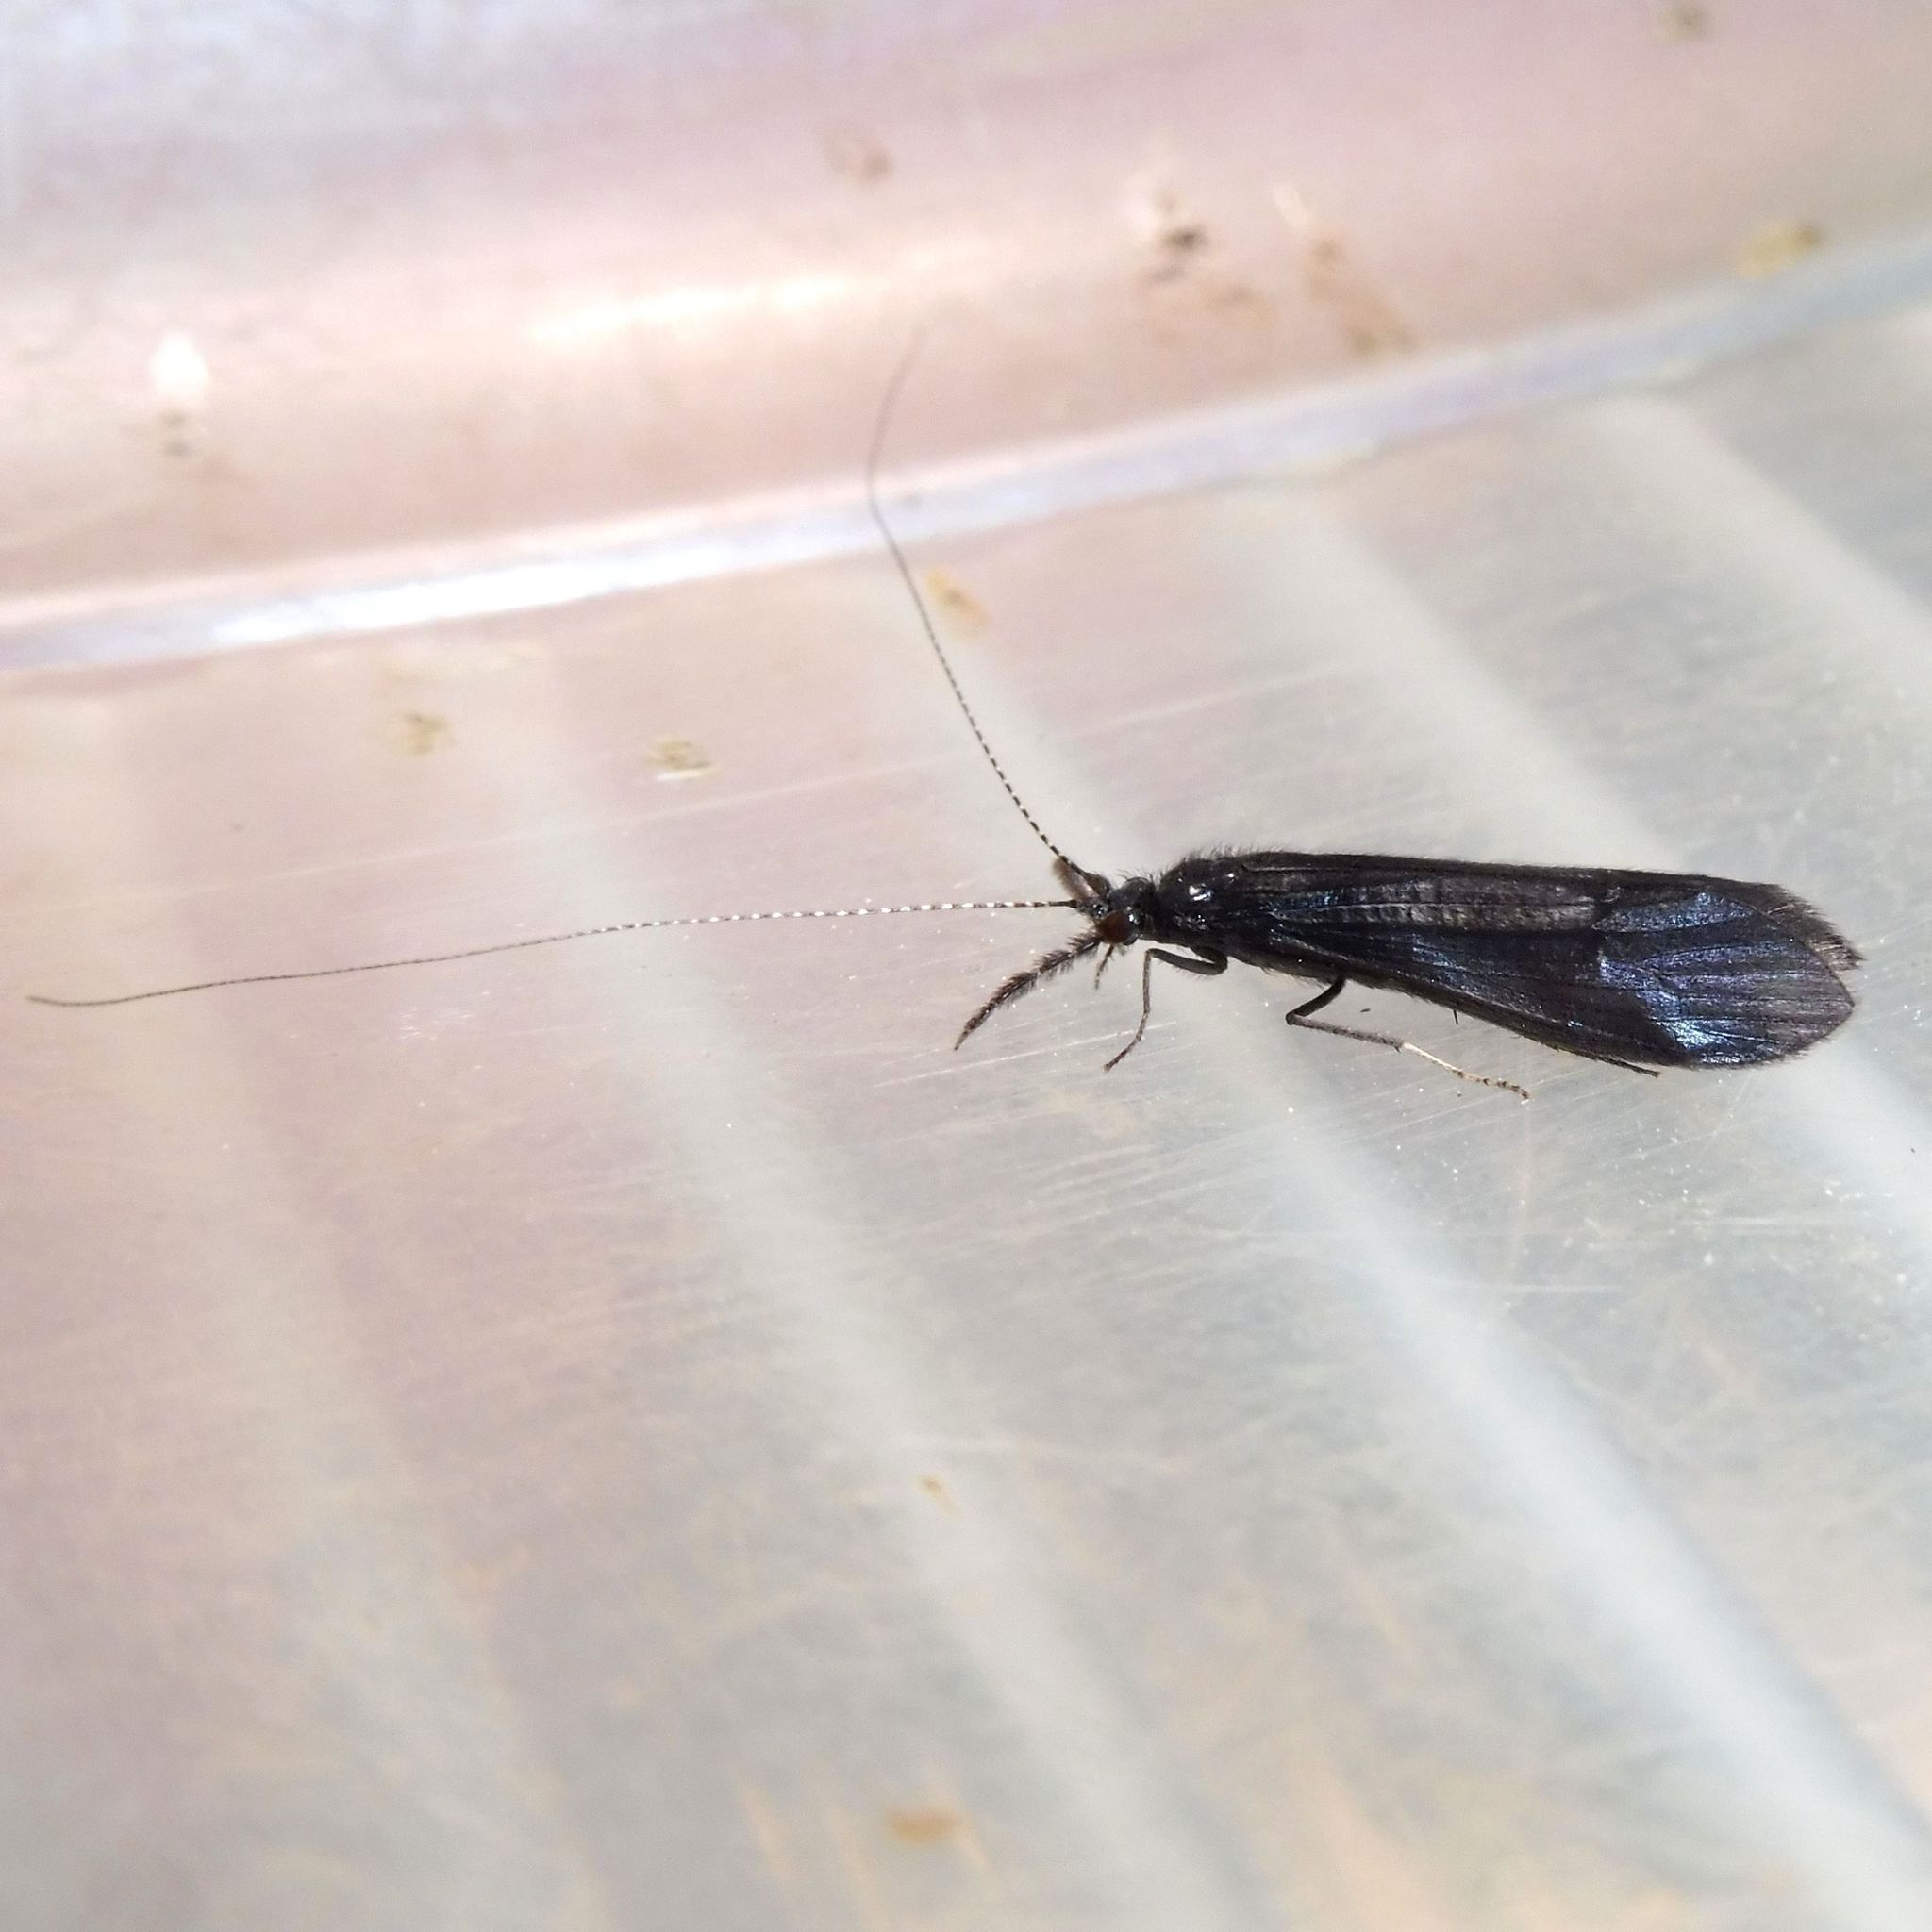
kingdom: Animalia
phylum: Arthropoda
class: Insecta
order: Trichoptera
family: Leptoceridae
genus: Mystacides
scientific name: Mystacides azureus
